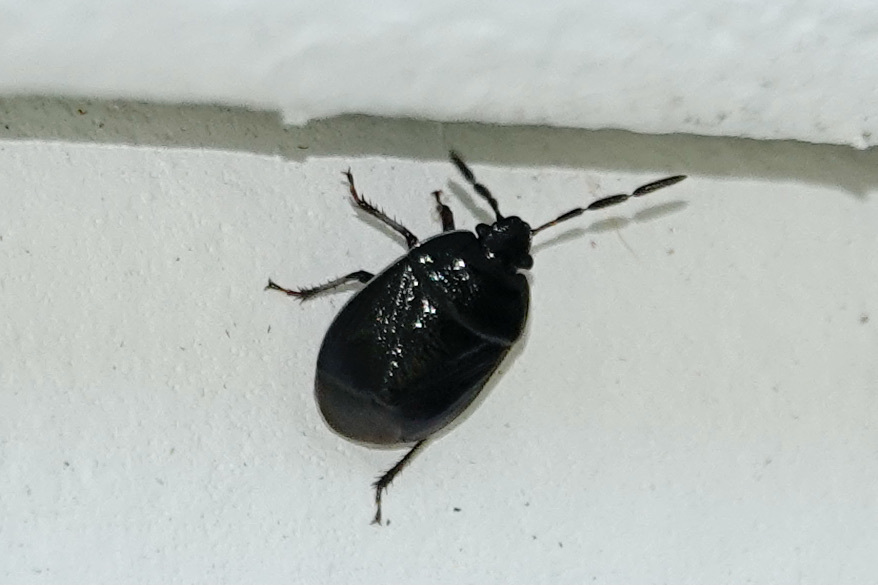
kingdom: Animalia
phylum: Arthropoda
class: Insecta
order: Hemiptera
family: Cydnidae
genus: Sehirus
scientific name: Sehirus cinctus
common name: White-margined burrower bug
